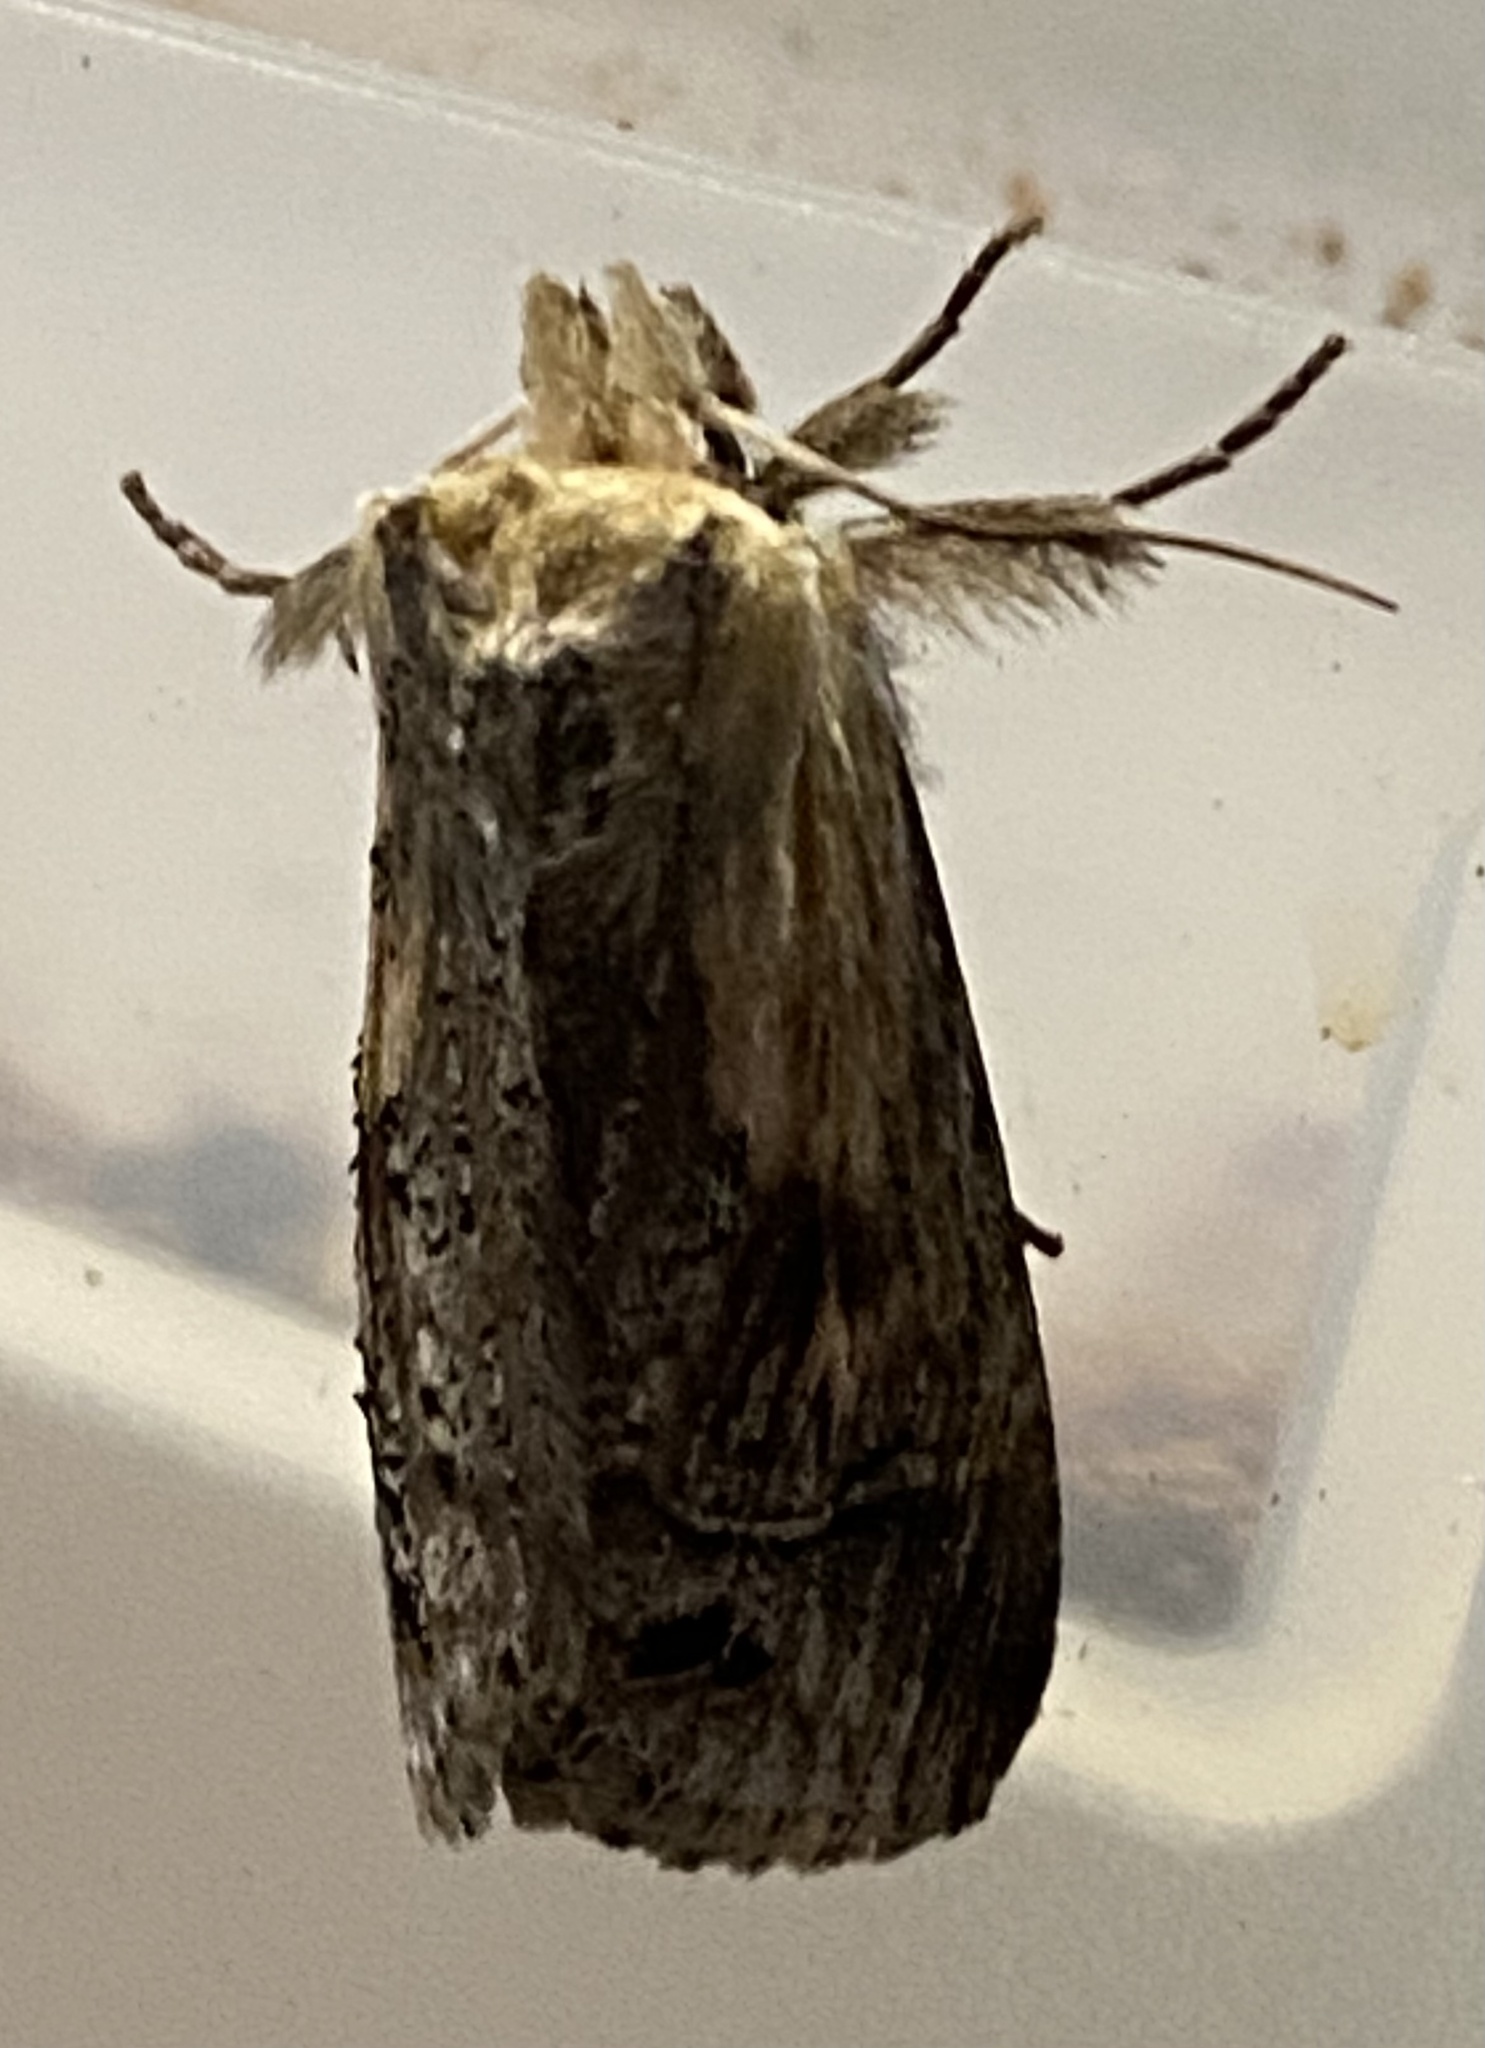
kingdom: Animalia
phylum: Arthropoda
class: Insecta
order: Lepidoptera
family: Notodontidae
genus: Dasylophia
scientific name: Dasylophia anguina
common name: Black-spotted prominent
